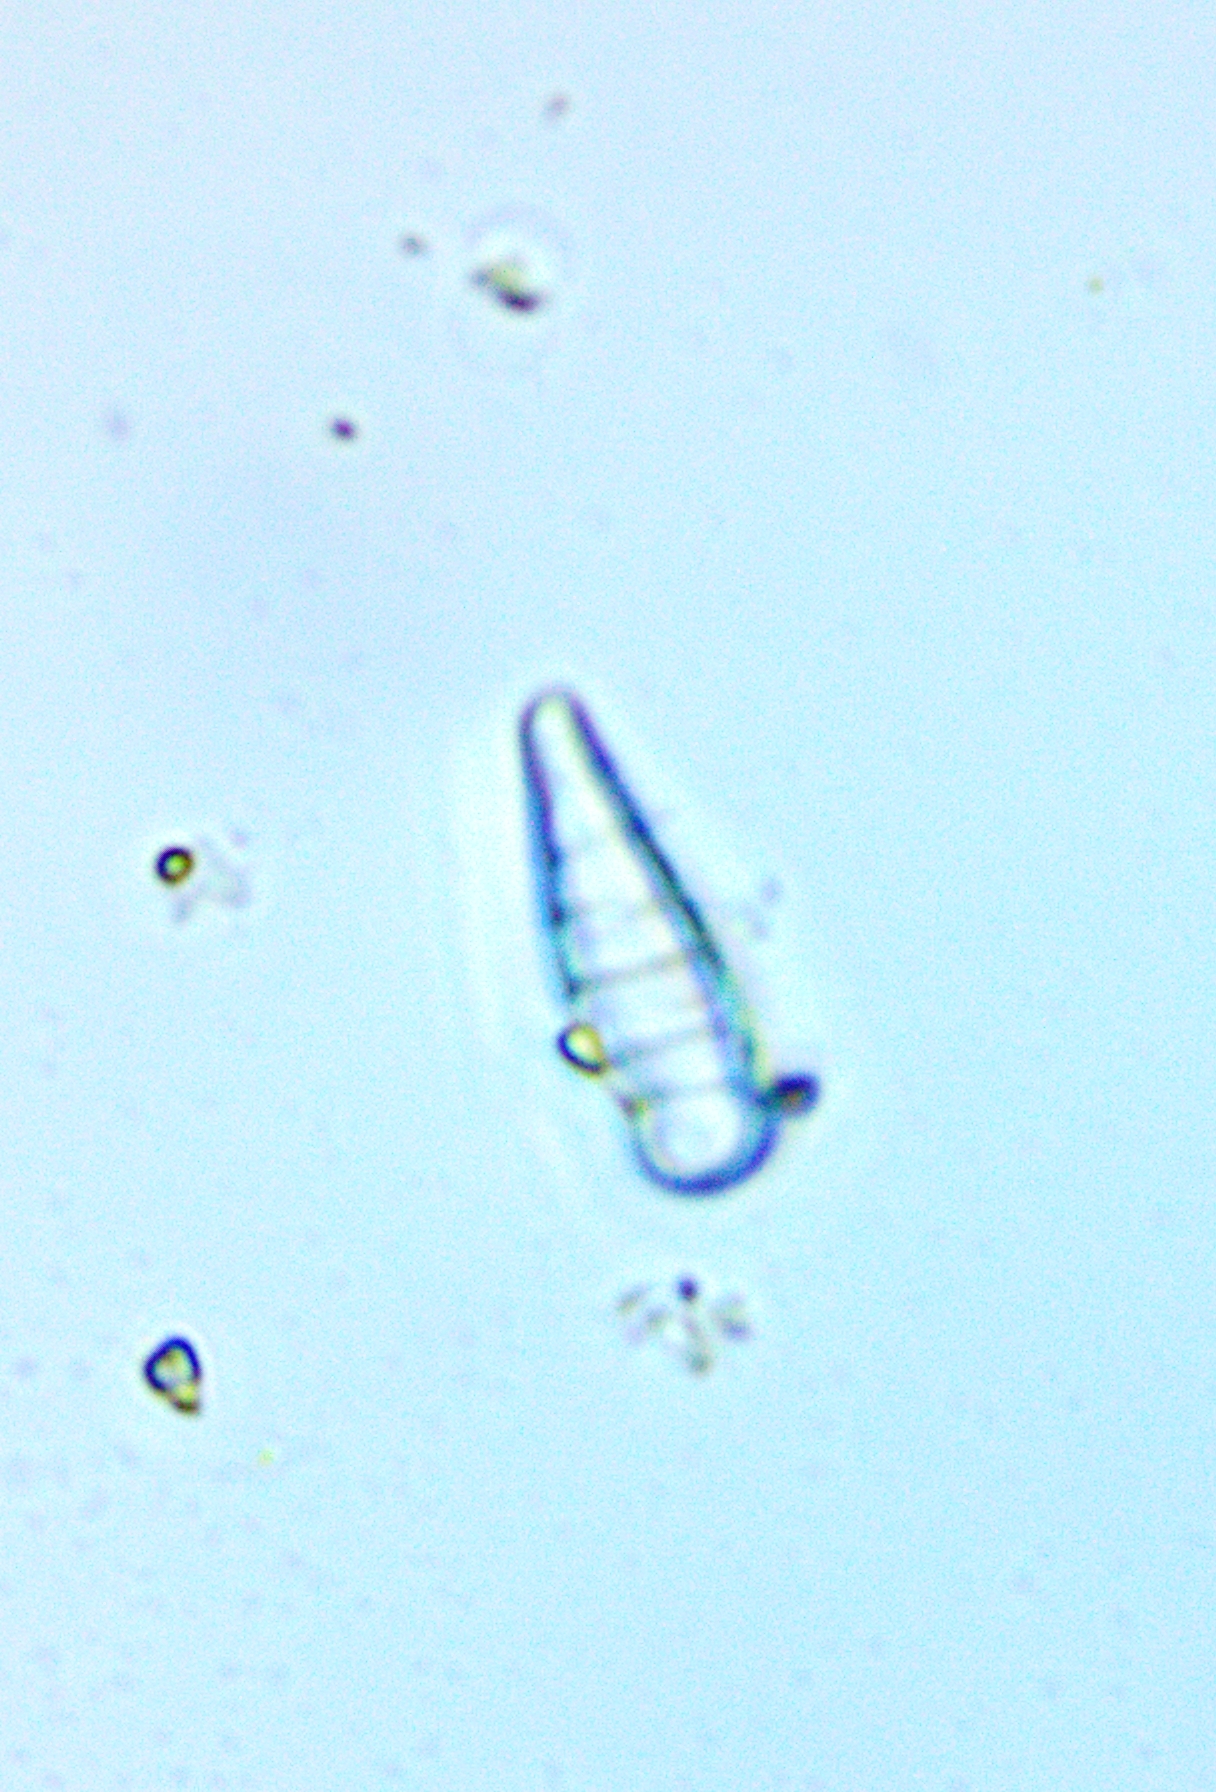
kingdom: Chromista
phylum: Ochrophyta
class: Bacillariophyceae
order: Fragilariales
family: Fragilariaceae
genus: Meridion
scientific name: Meridion constrictum
